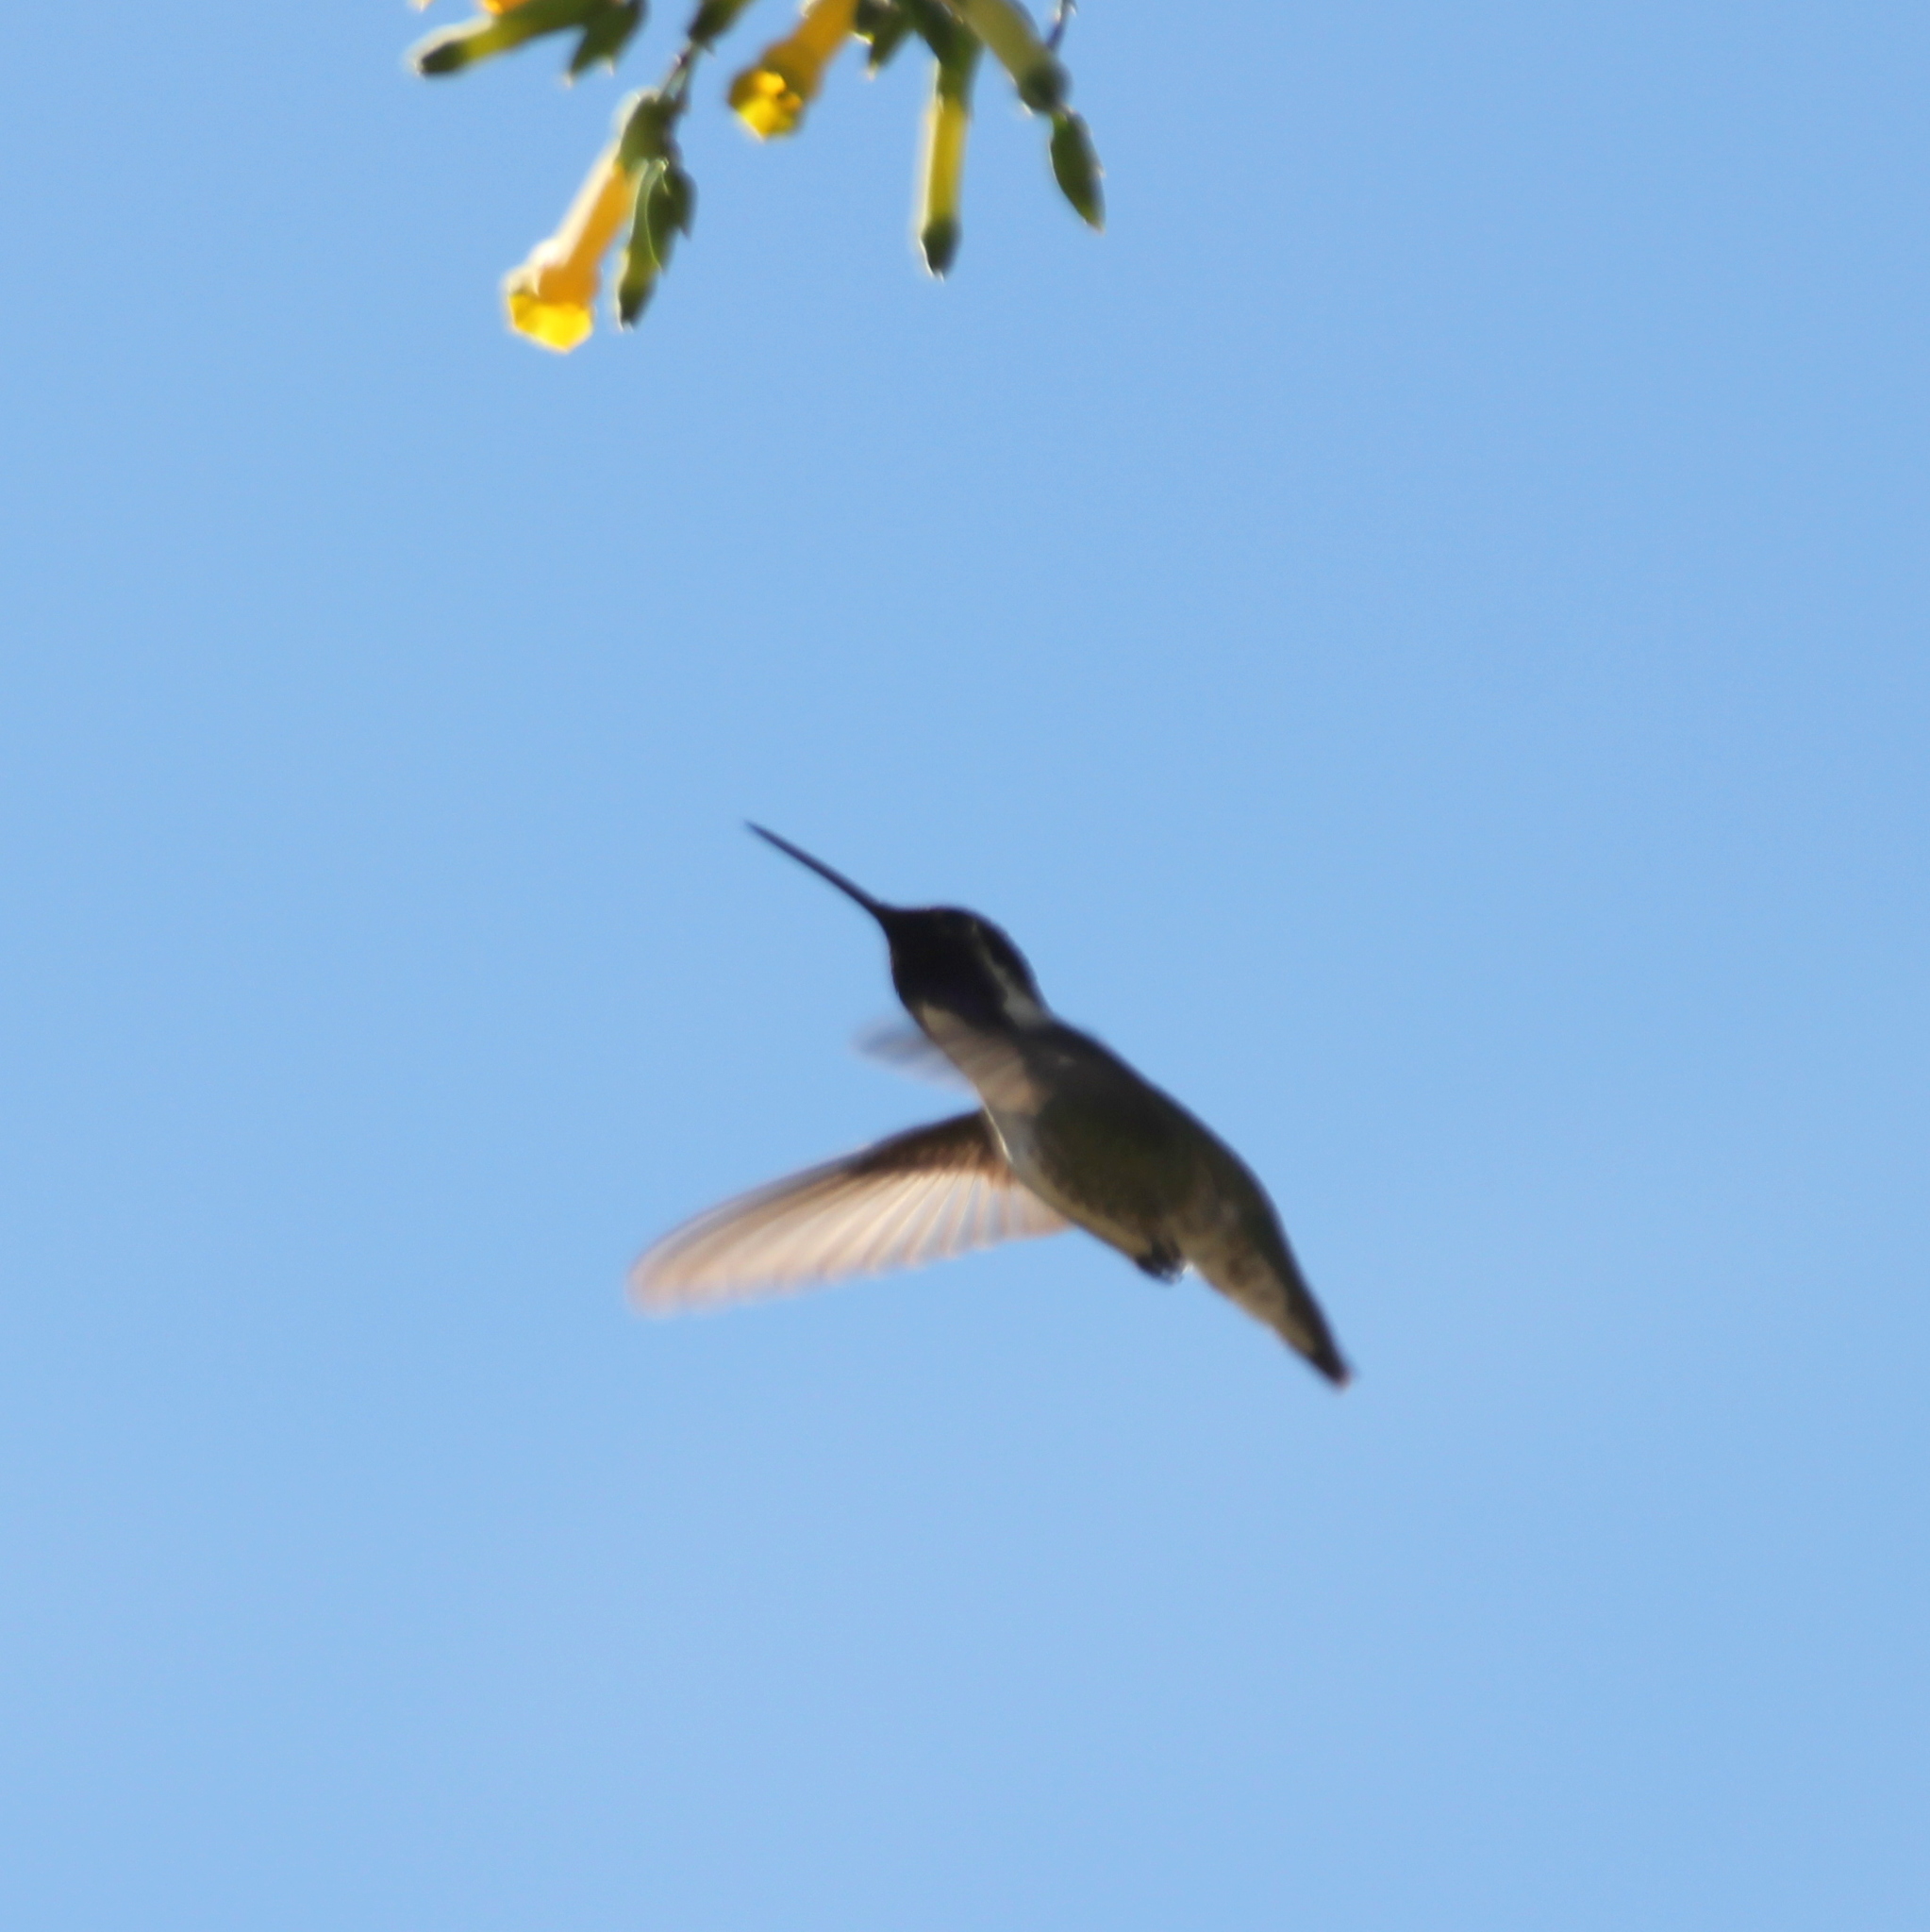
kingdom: Animalia
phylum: Chordata
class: Aves
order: Apodiformes
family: Trochilidae
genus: Calypte
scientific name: Calypte costae
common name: Costa's hummingbird
